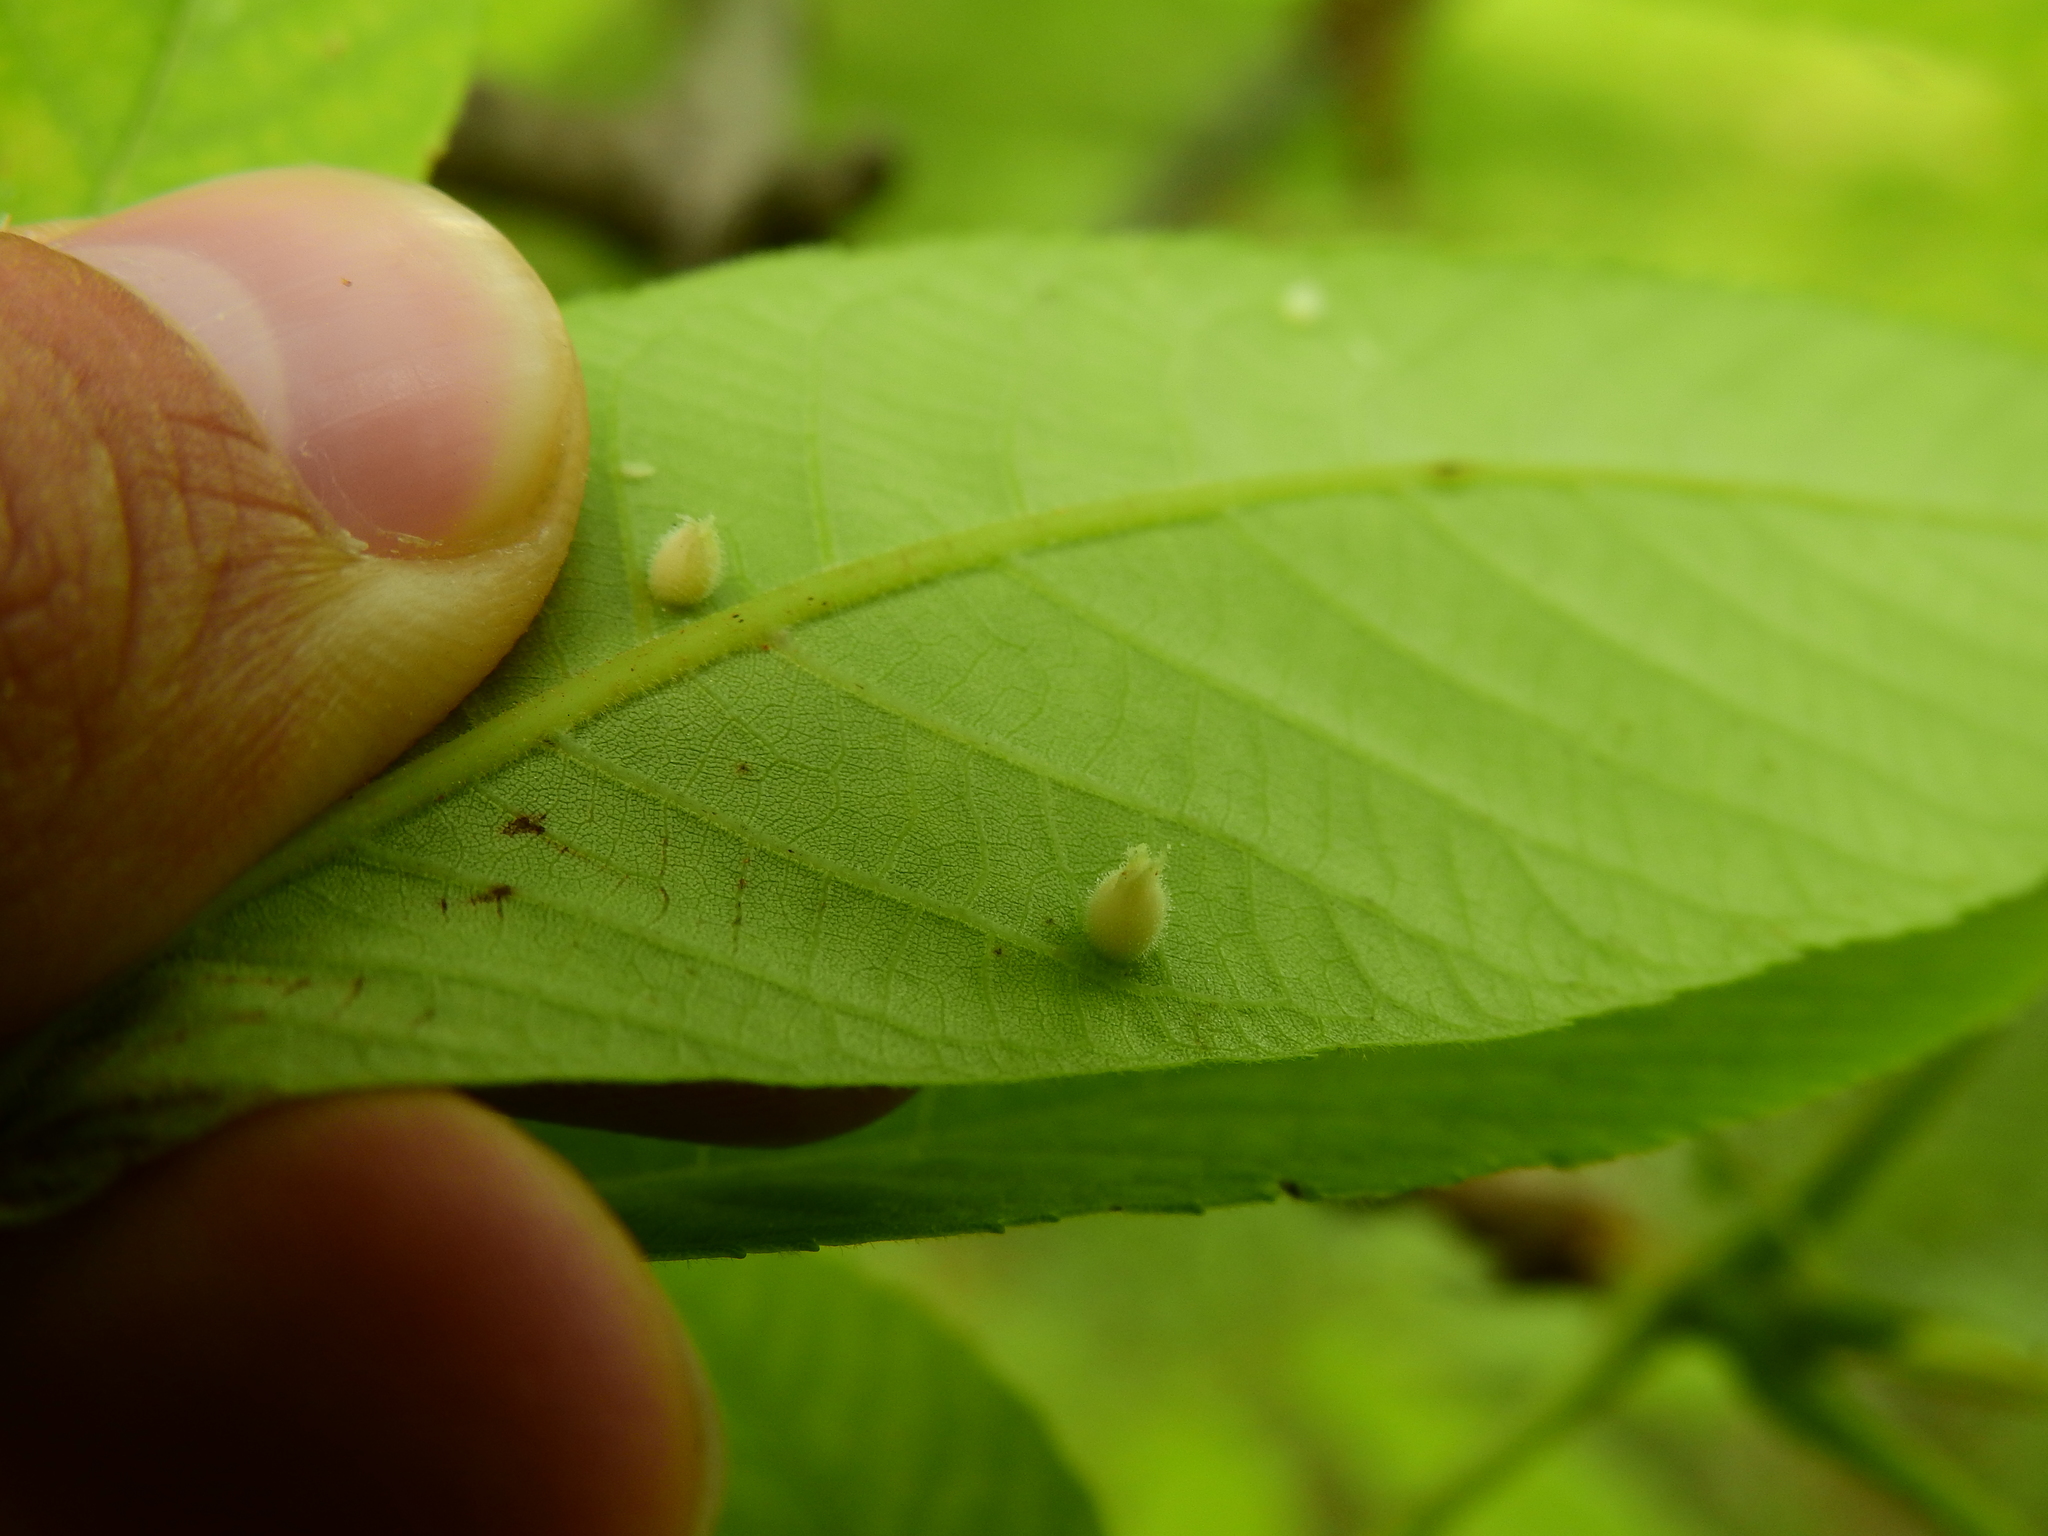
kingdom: Animalia
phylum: Arthropoda
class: Insecta
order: Hemiptera
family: Phylloxeridae
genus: Phylloxera
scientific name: Phylloxera caryaegummosa
